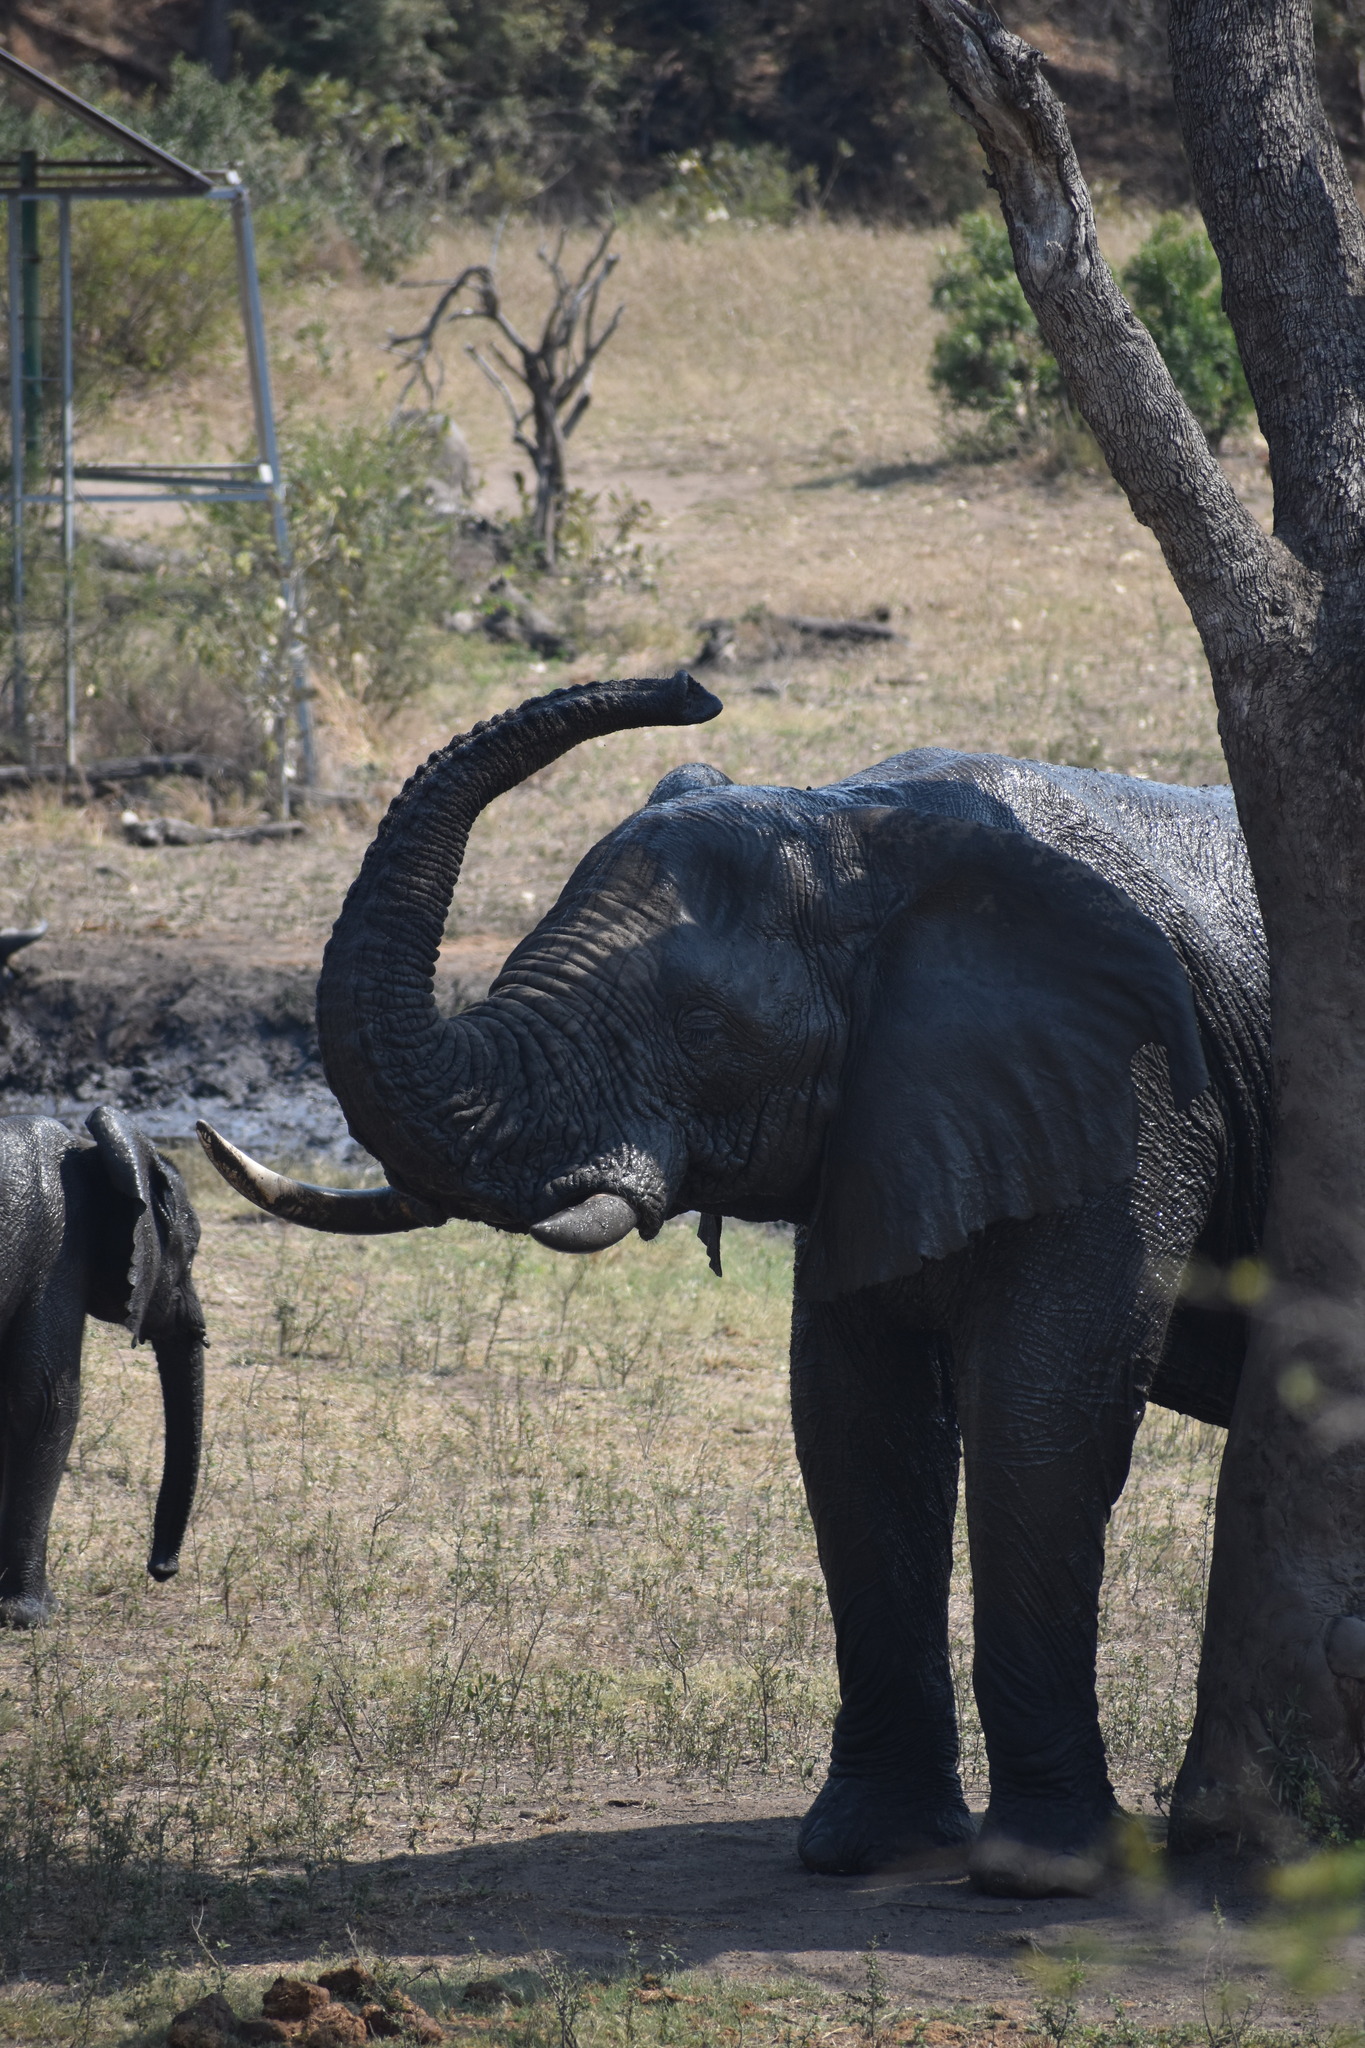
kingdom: Animalia
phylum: Chordata
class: Mammalia
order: Proboscidea
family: Elephantidae
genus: Loxodonta
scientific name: Loxodonta africana
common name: African elephant
